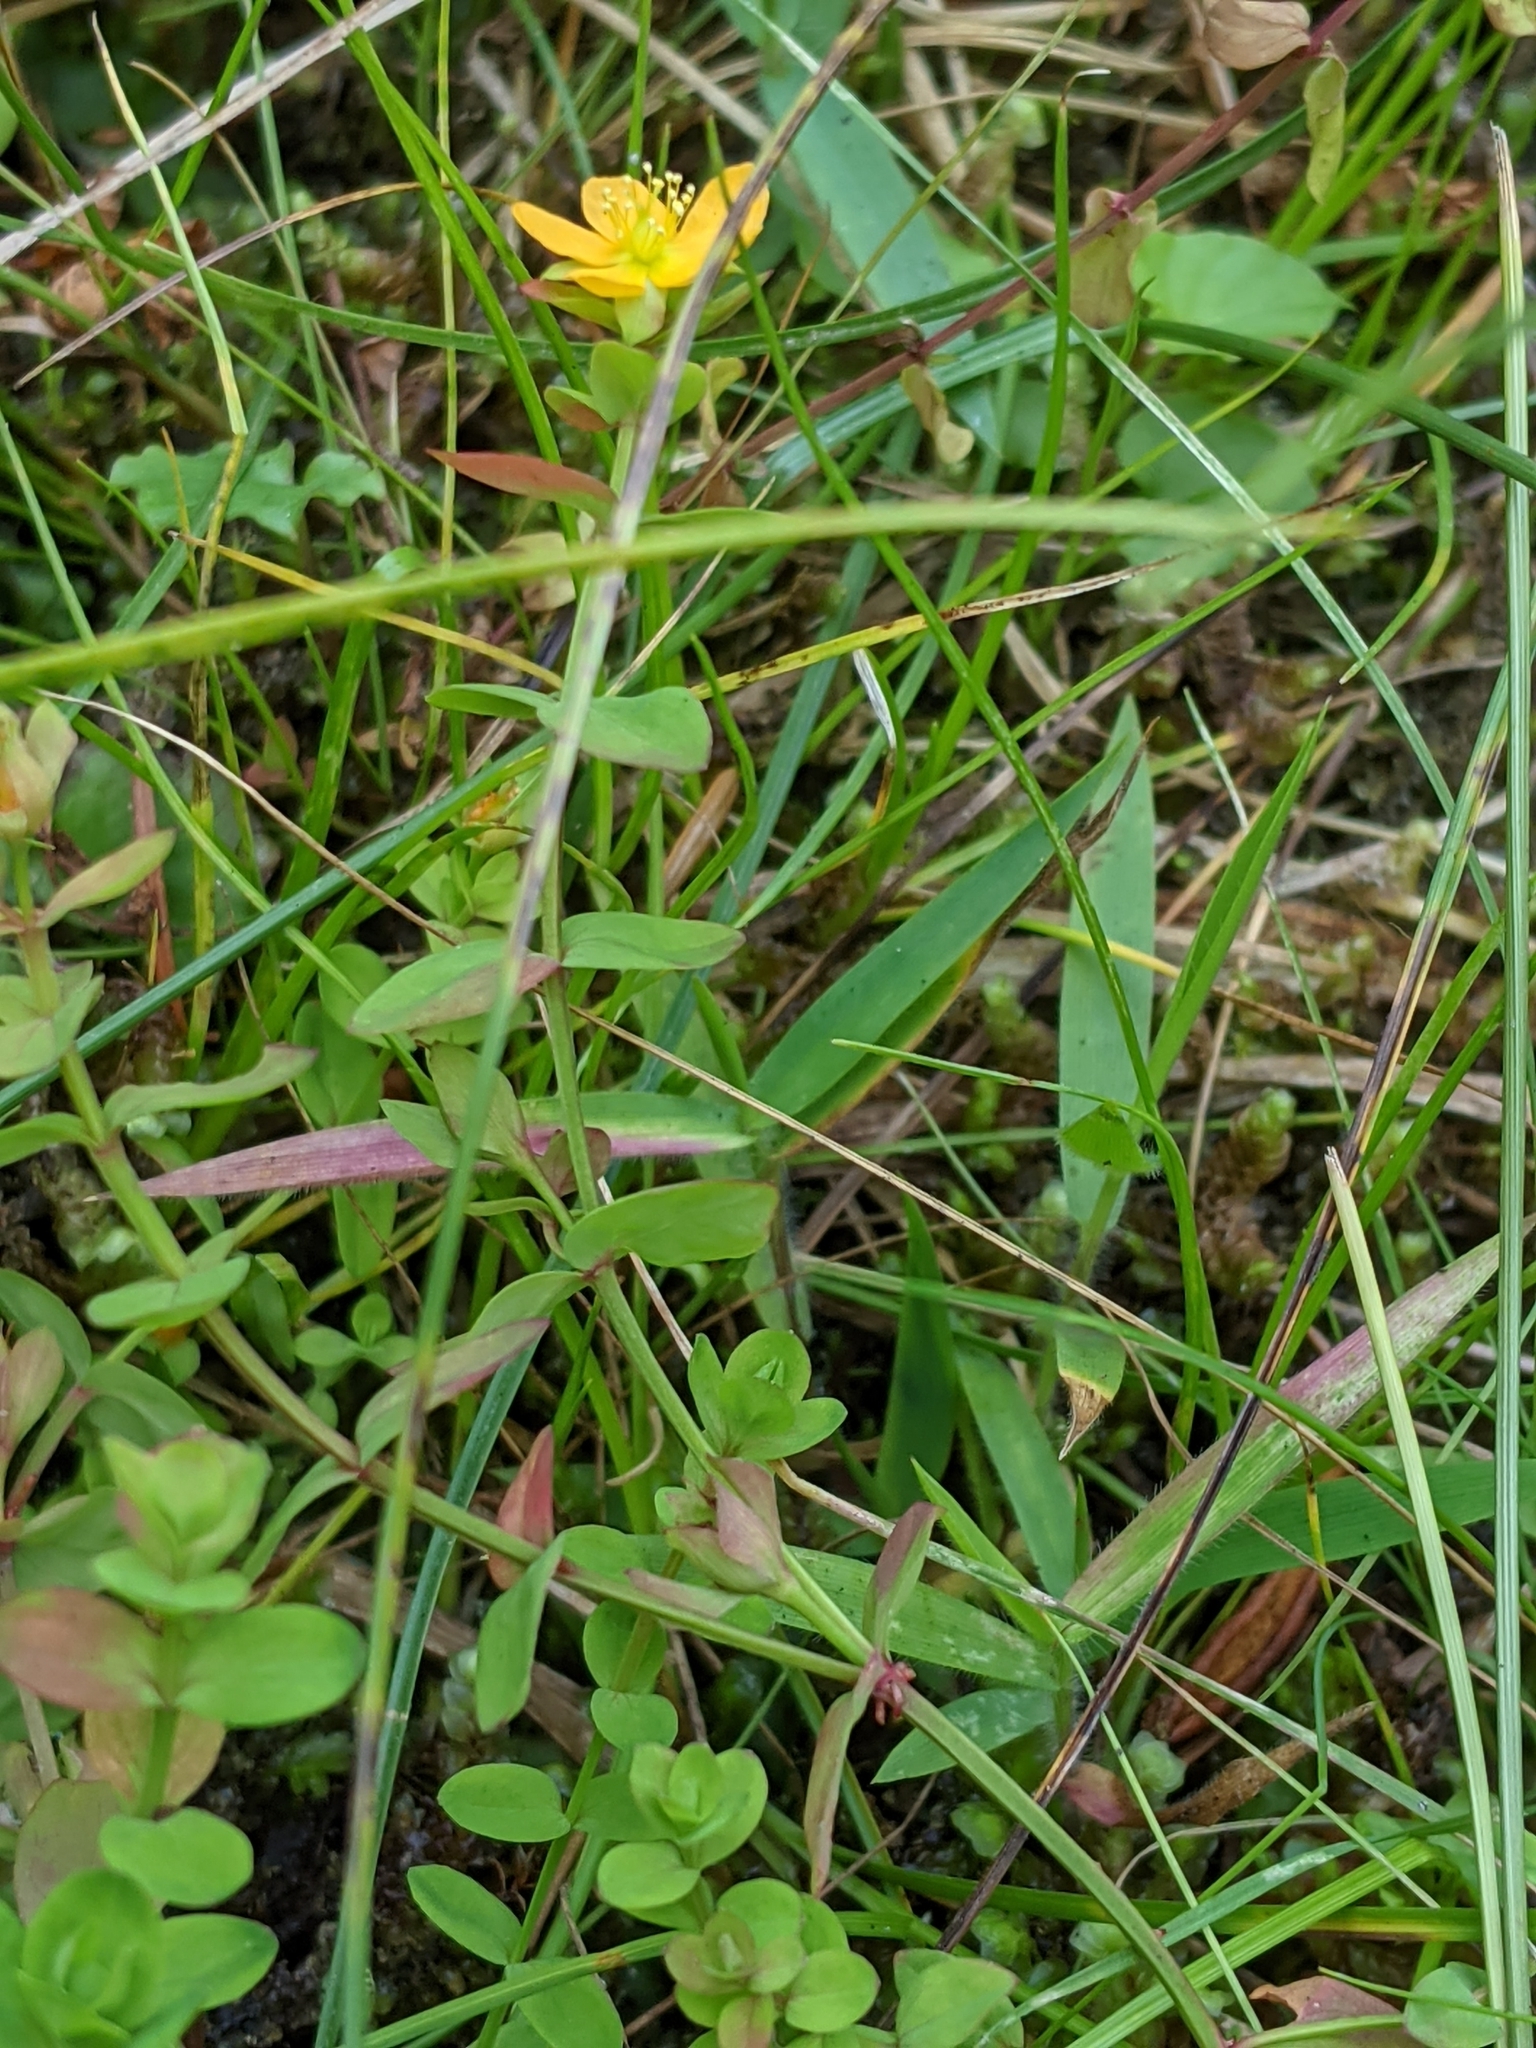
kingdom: Plantae
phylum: Tracheophyta
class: Magnoliopsida
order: Malpighiales
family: Hypericaceae
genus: Hypericum
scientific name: Hypericum anagalloides
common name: Bog st. john's-wort
